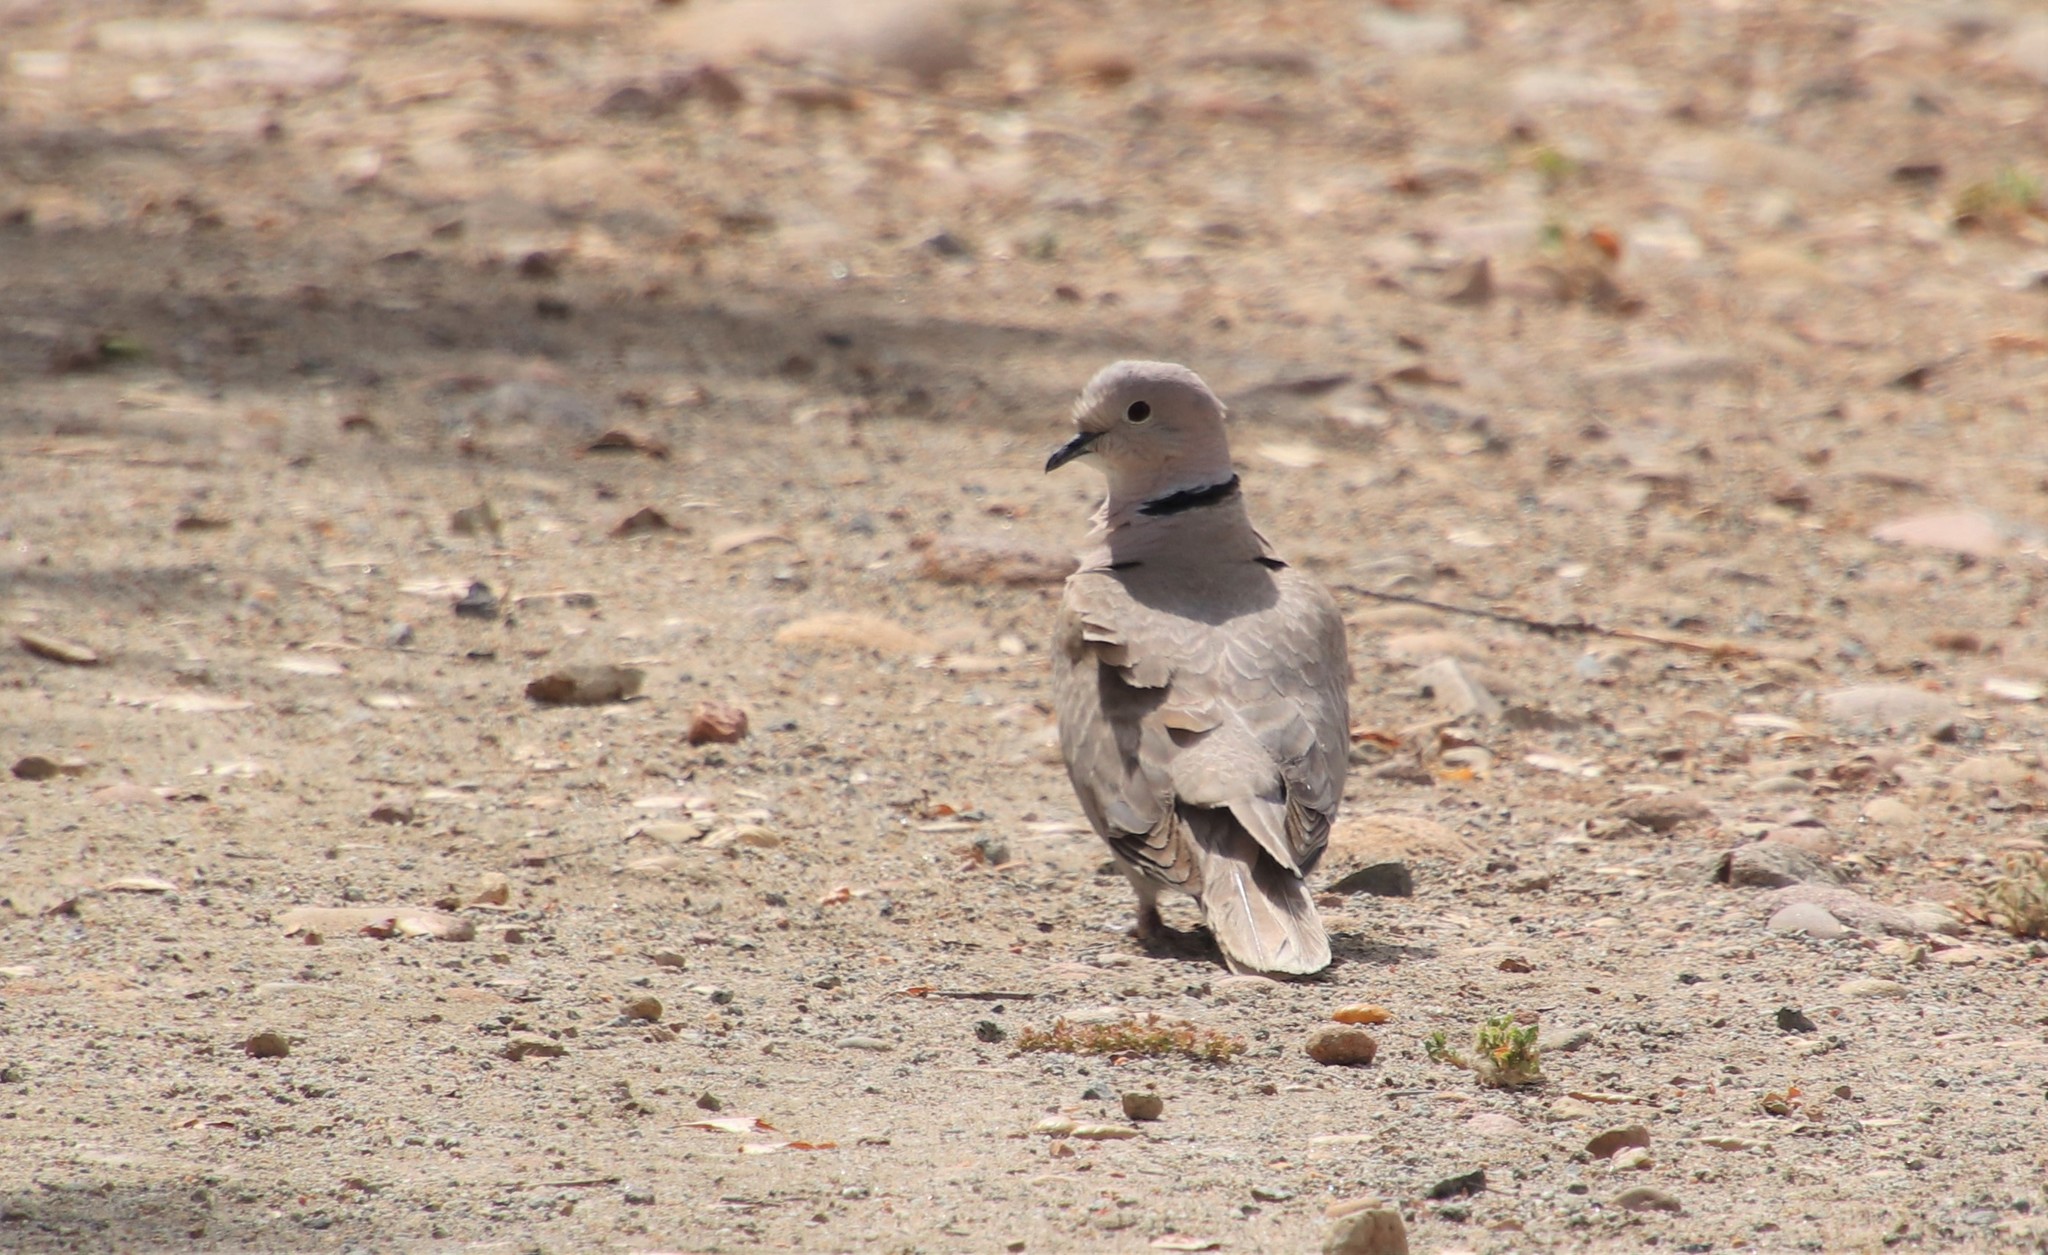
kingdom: Animalia
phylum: Chordata
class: Aves
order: Columbiformes
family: Columbidae
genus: Streptopelia
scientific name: Streptopelia decaocto
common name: Eurasian collared dove
